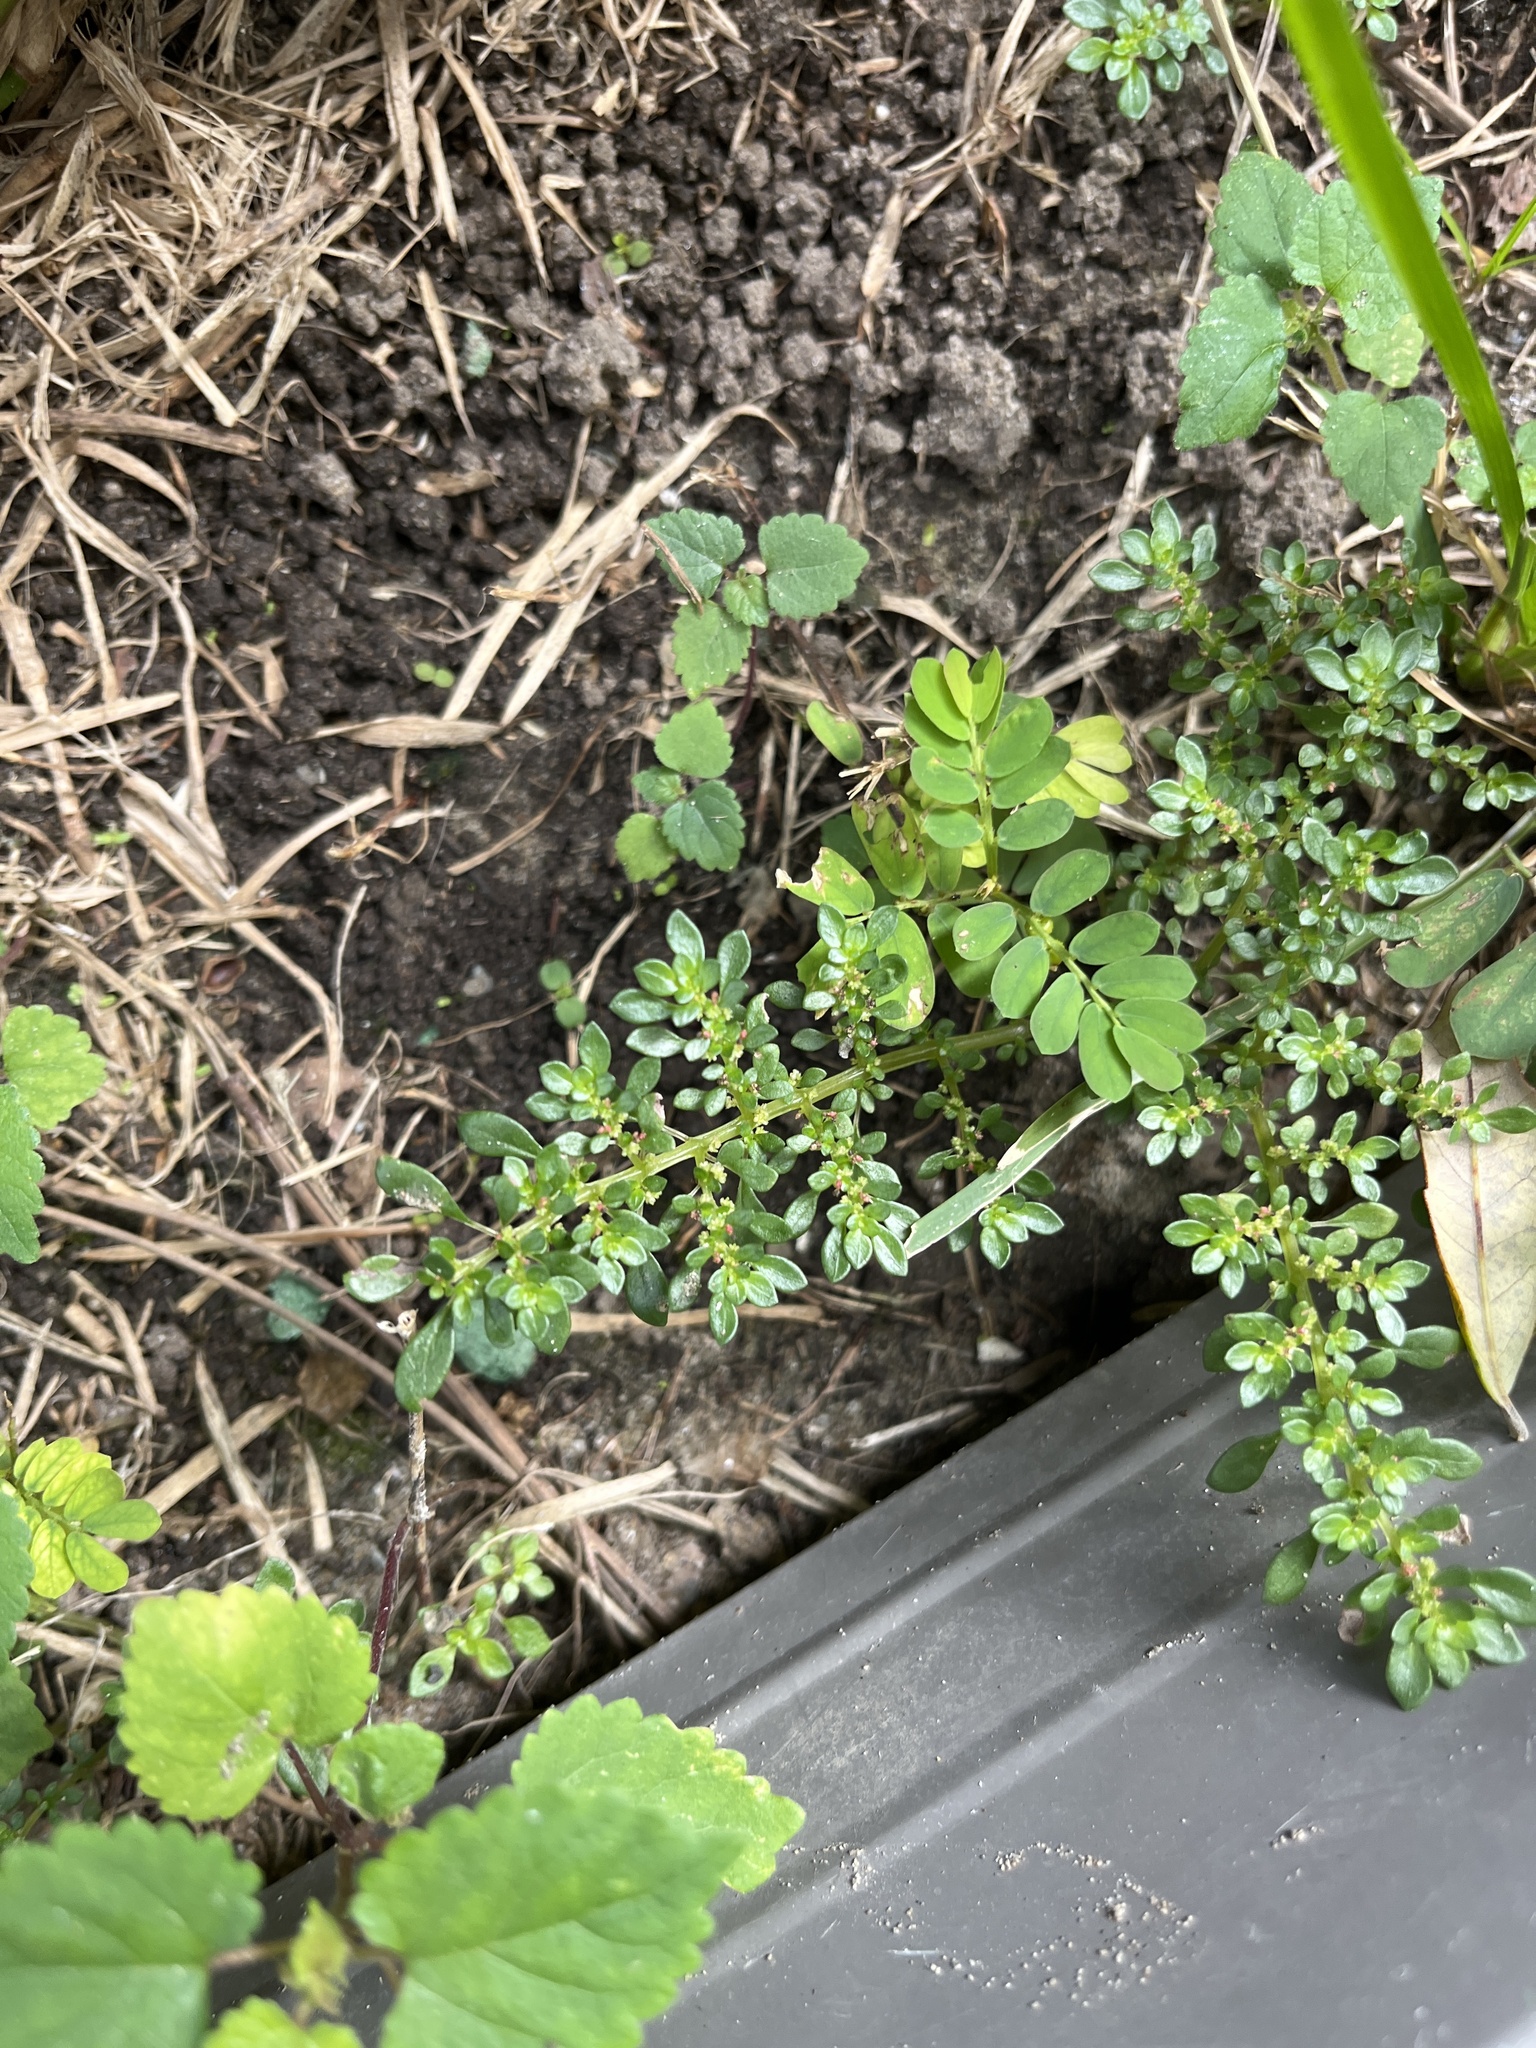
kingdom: Plantae
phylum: Tracheophyta
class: Magnoliopsida
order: Rosales
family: Urticaceae
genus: Pilea
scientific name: Pilea microphylla
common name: Artillery-plant
